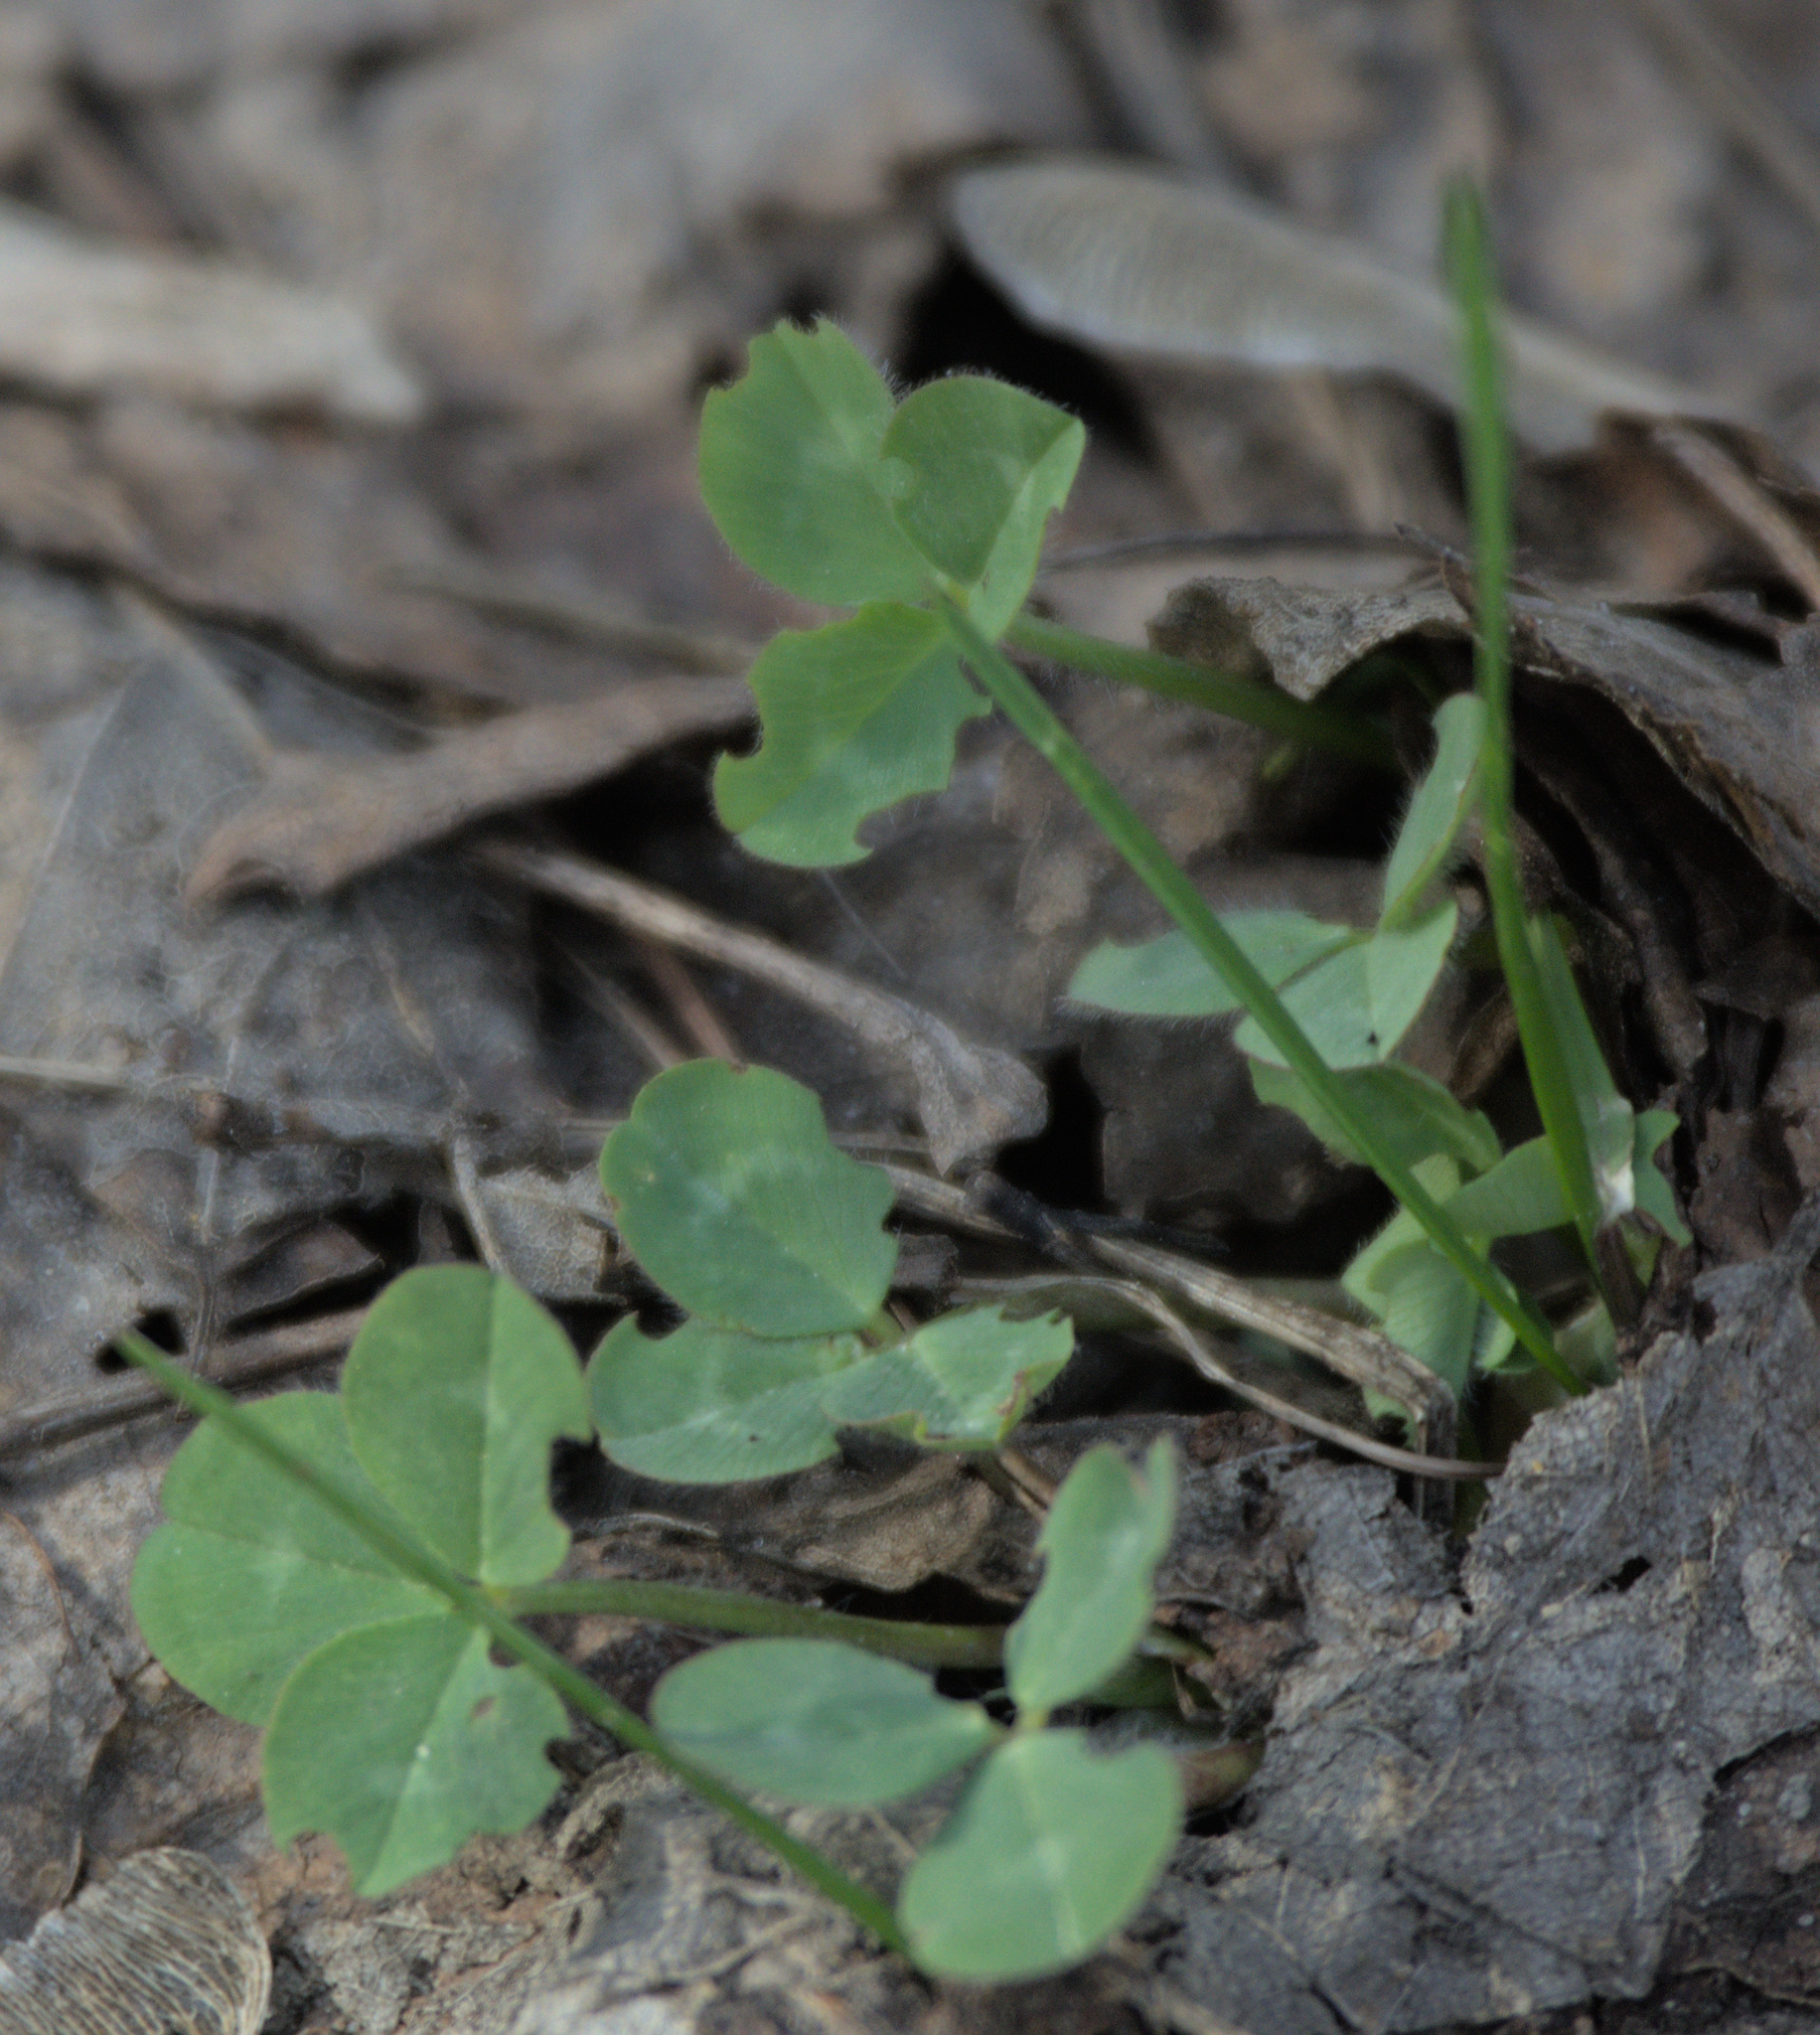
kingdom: Plantae
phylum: Tracheophyta
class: Magnoliopsida
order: Fabales
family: Fabaceae
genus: Trifolium
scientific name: Trifolium repens
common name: White clover
